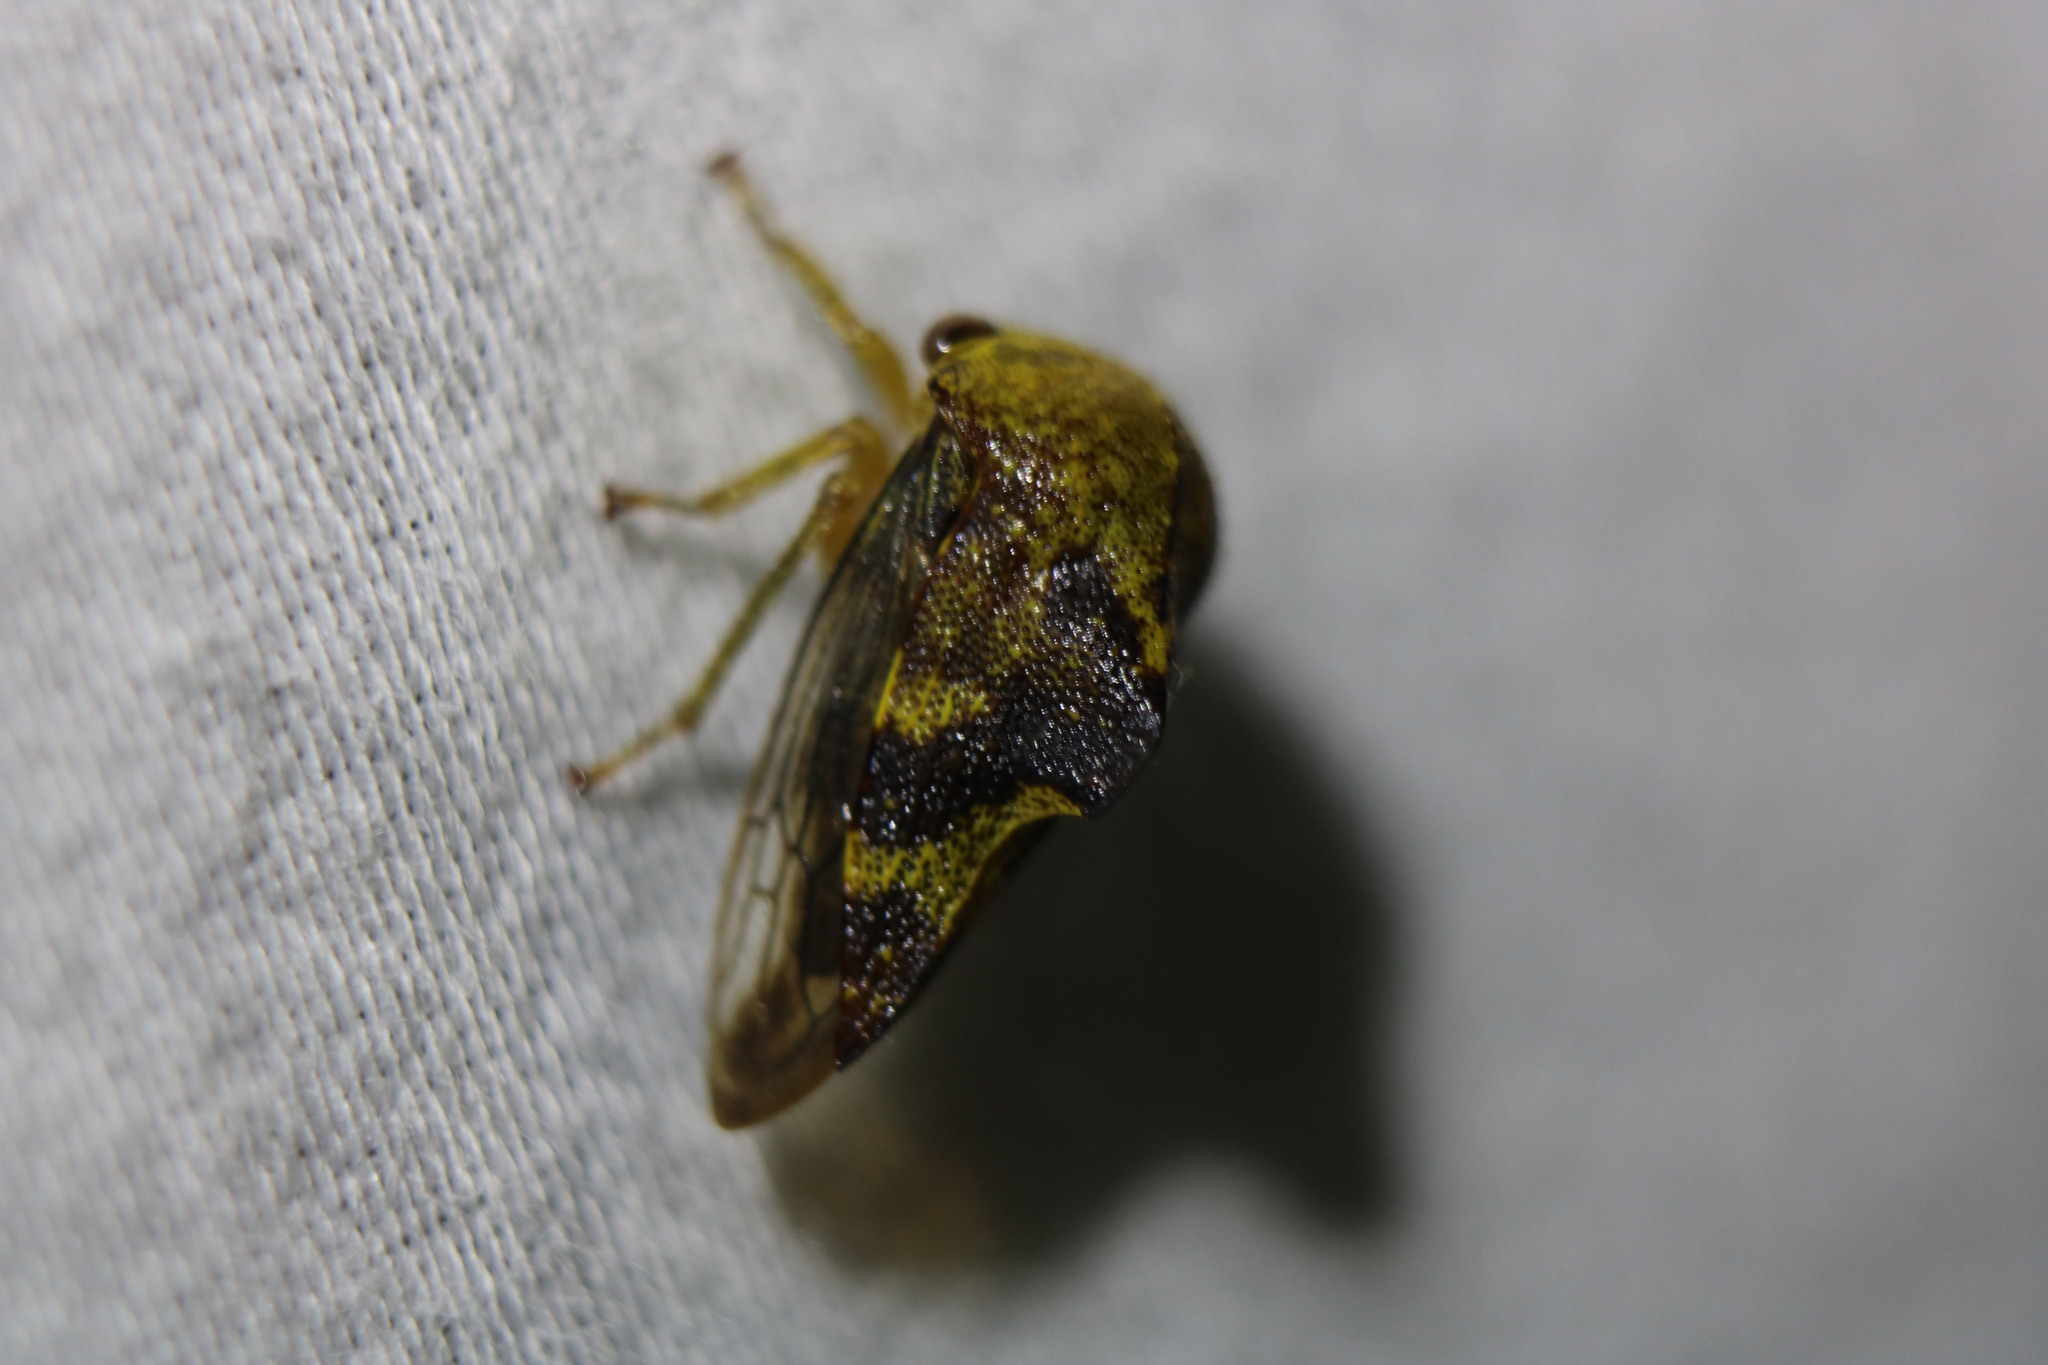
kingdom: Animalia
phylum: Arthropoda
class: Insecta
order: Hemiptera
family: Membracidae
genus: Telamona
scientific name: Telamona tiliae
